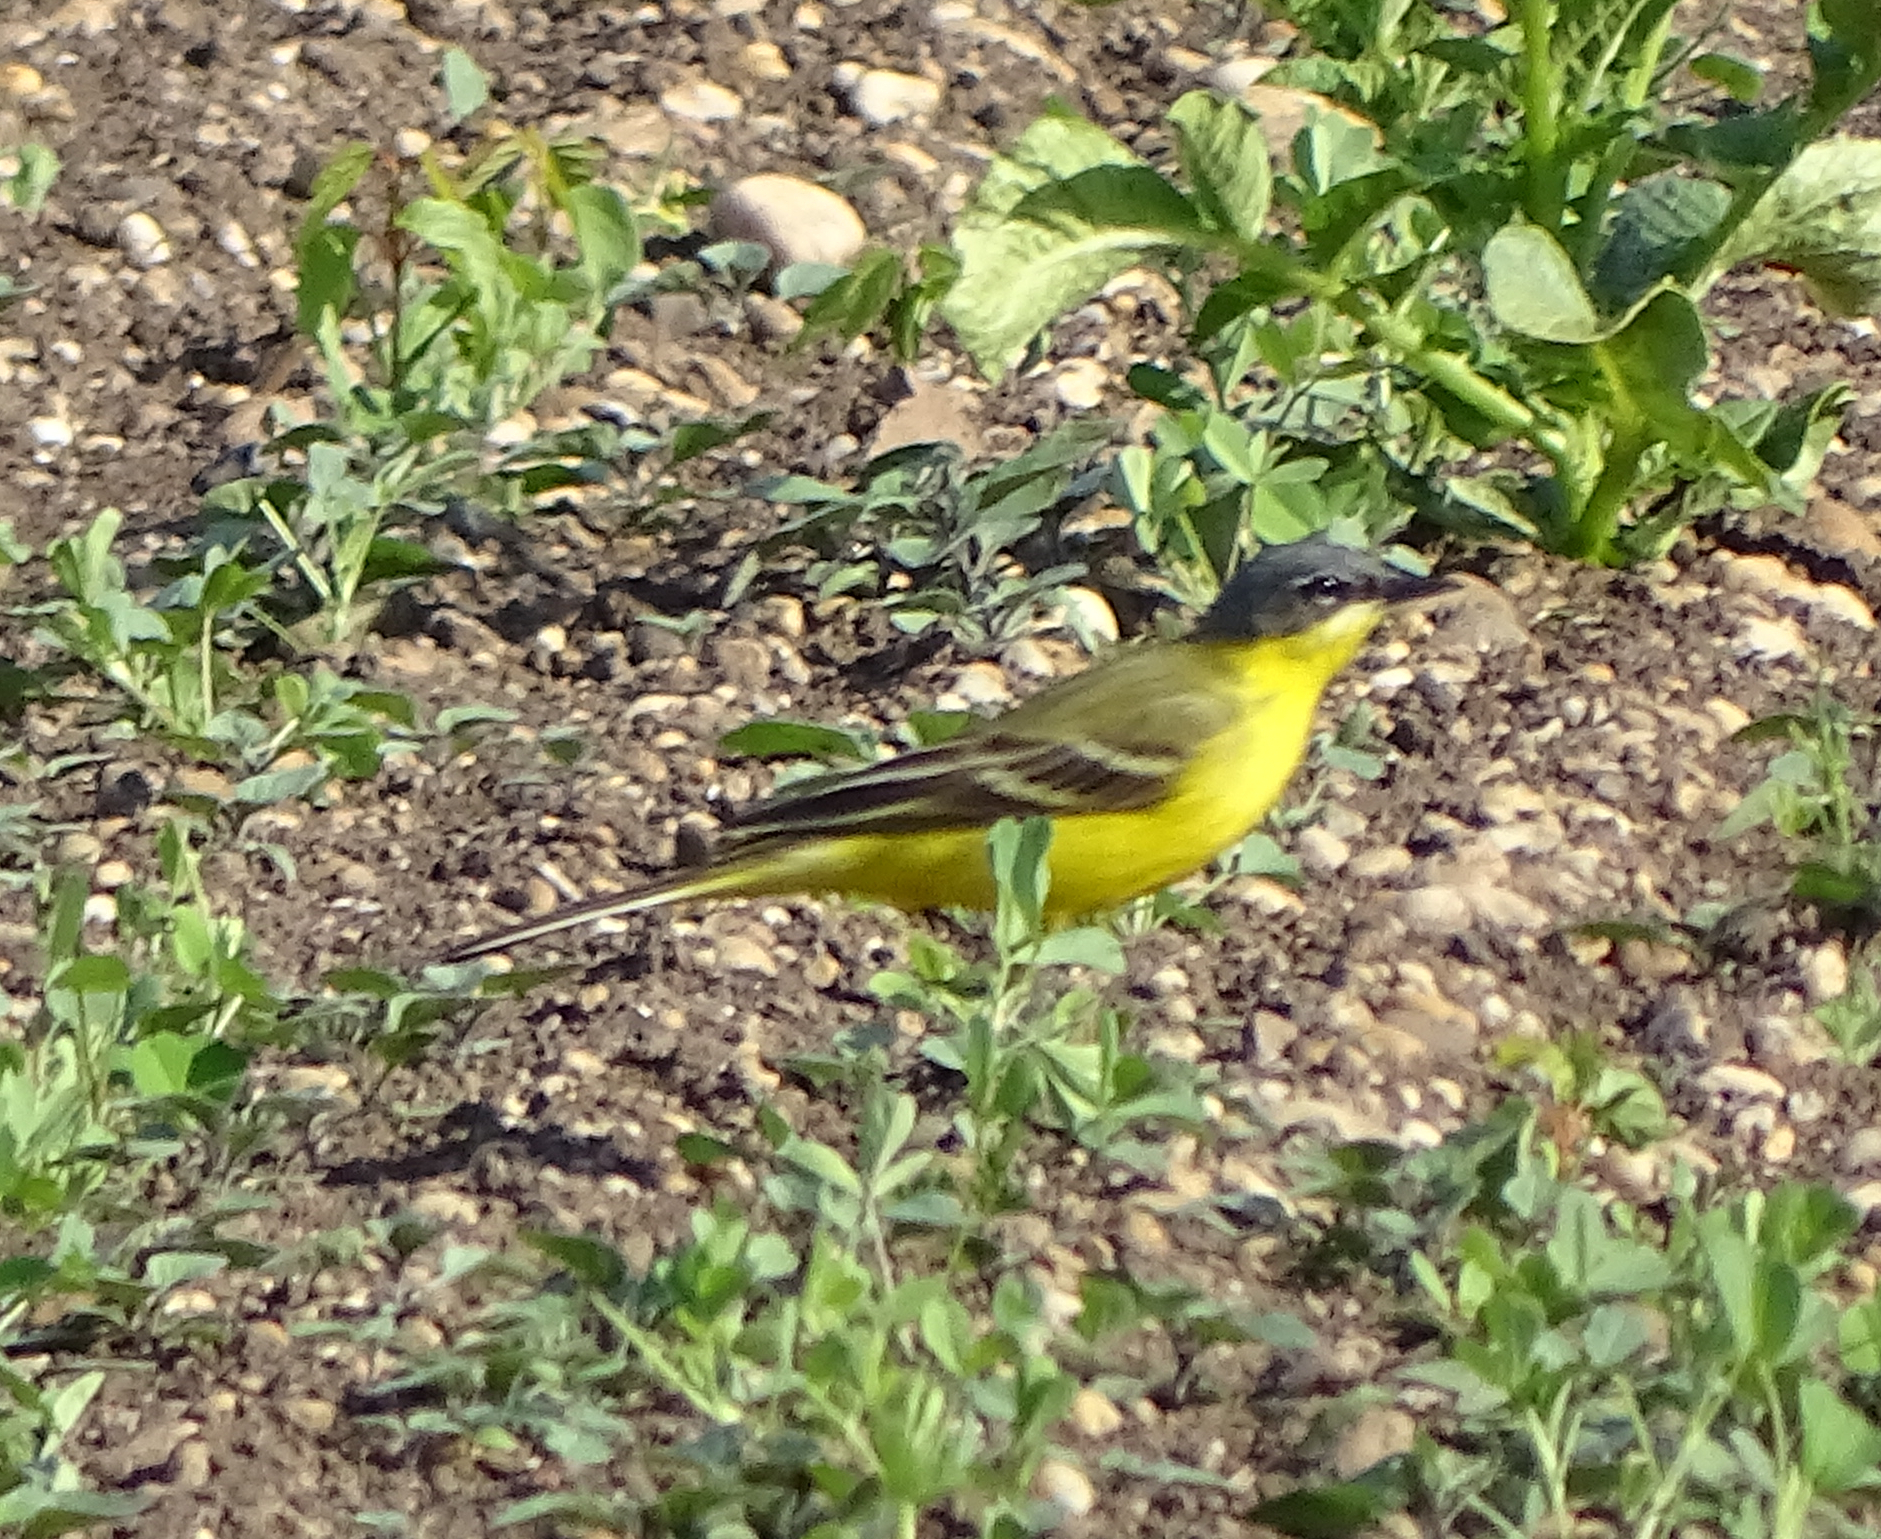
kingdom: Animalia
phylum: Chordata
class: Aves
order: Passeriformes
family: Motacillidae
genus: Motacilla
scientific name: Motacilla flava
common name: Western yellow wagtail
